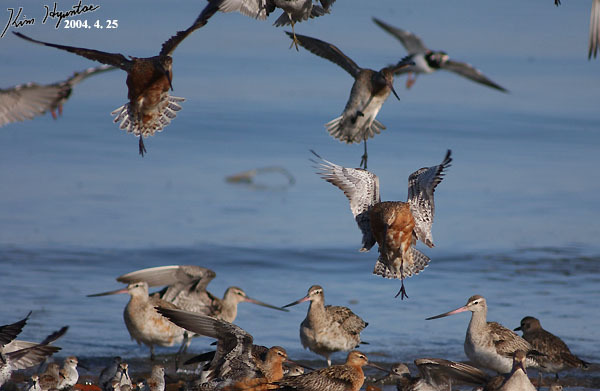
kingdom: Animalia
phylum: Chordata
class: Aves
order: Charadriiformes
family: Scolopacidae
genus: Limosa
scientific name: Limosa lapponica
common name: Bar-tailed godwit
